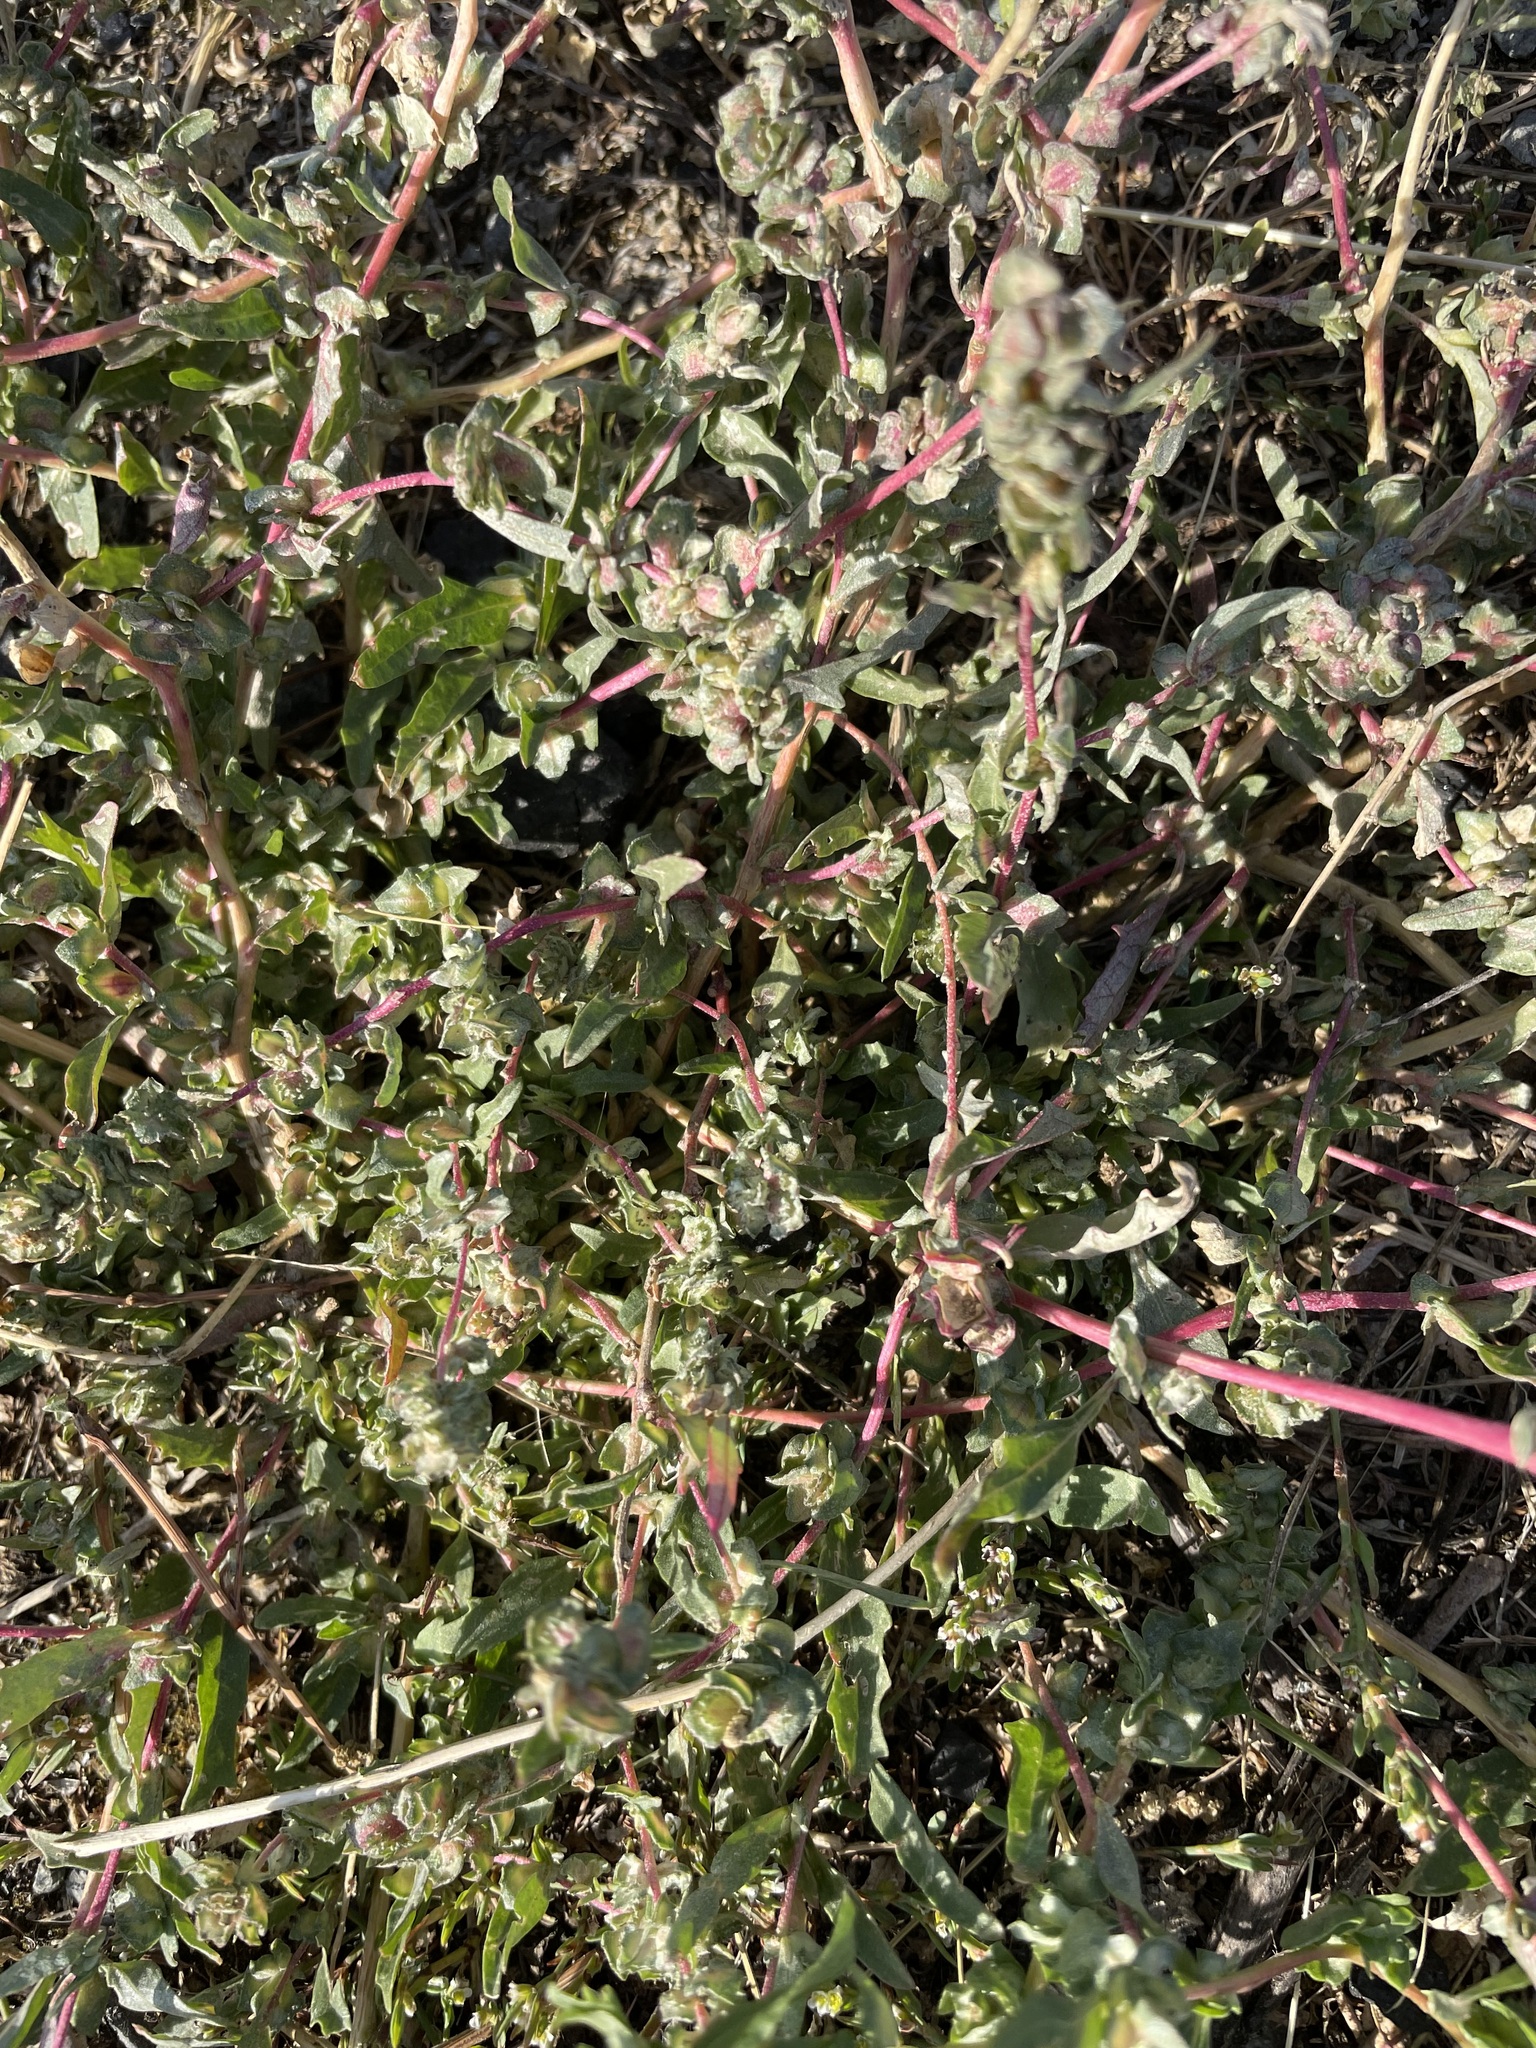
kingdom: Plantae
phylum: Tracheophyta
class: Magnoliopsida
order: Caryophyllales
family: Amaranthaceae
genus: Atriplex
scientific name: Atriplex tatarica
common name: Tatarian orache
